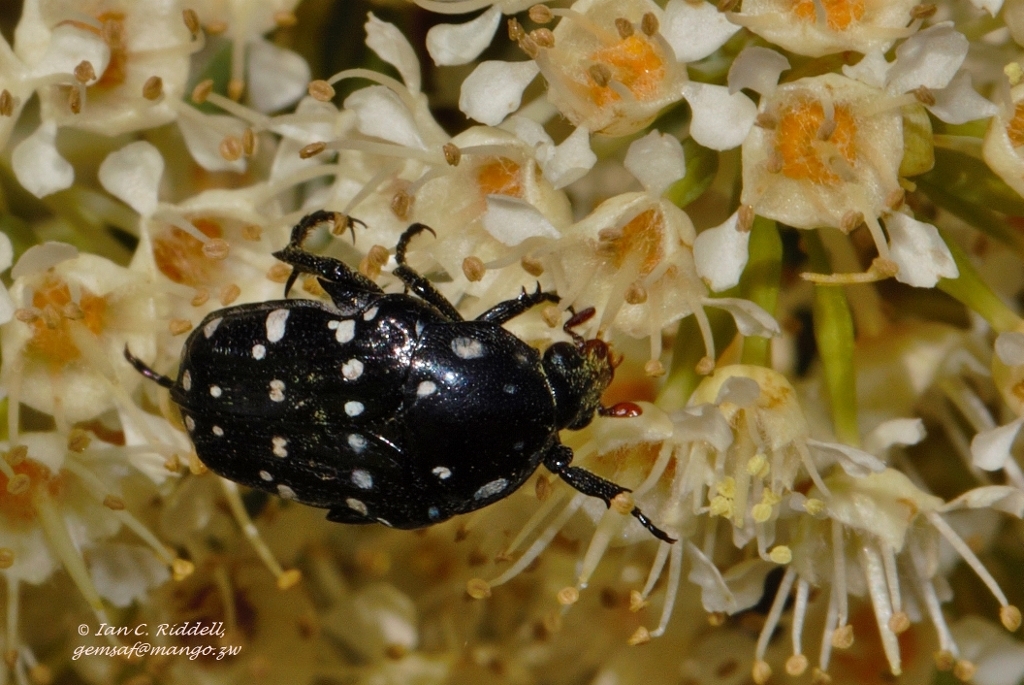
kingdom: Animalia
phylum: Arthropoda
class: Insecta
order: Coleoptera
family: Scarabaeidae
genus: Cyrtothyrea
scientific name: Cyrtothyrea rubriceps
